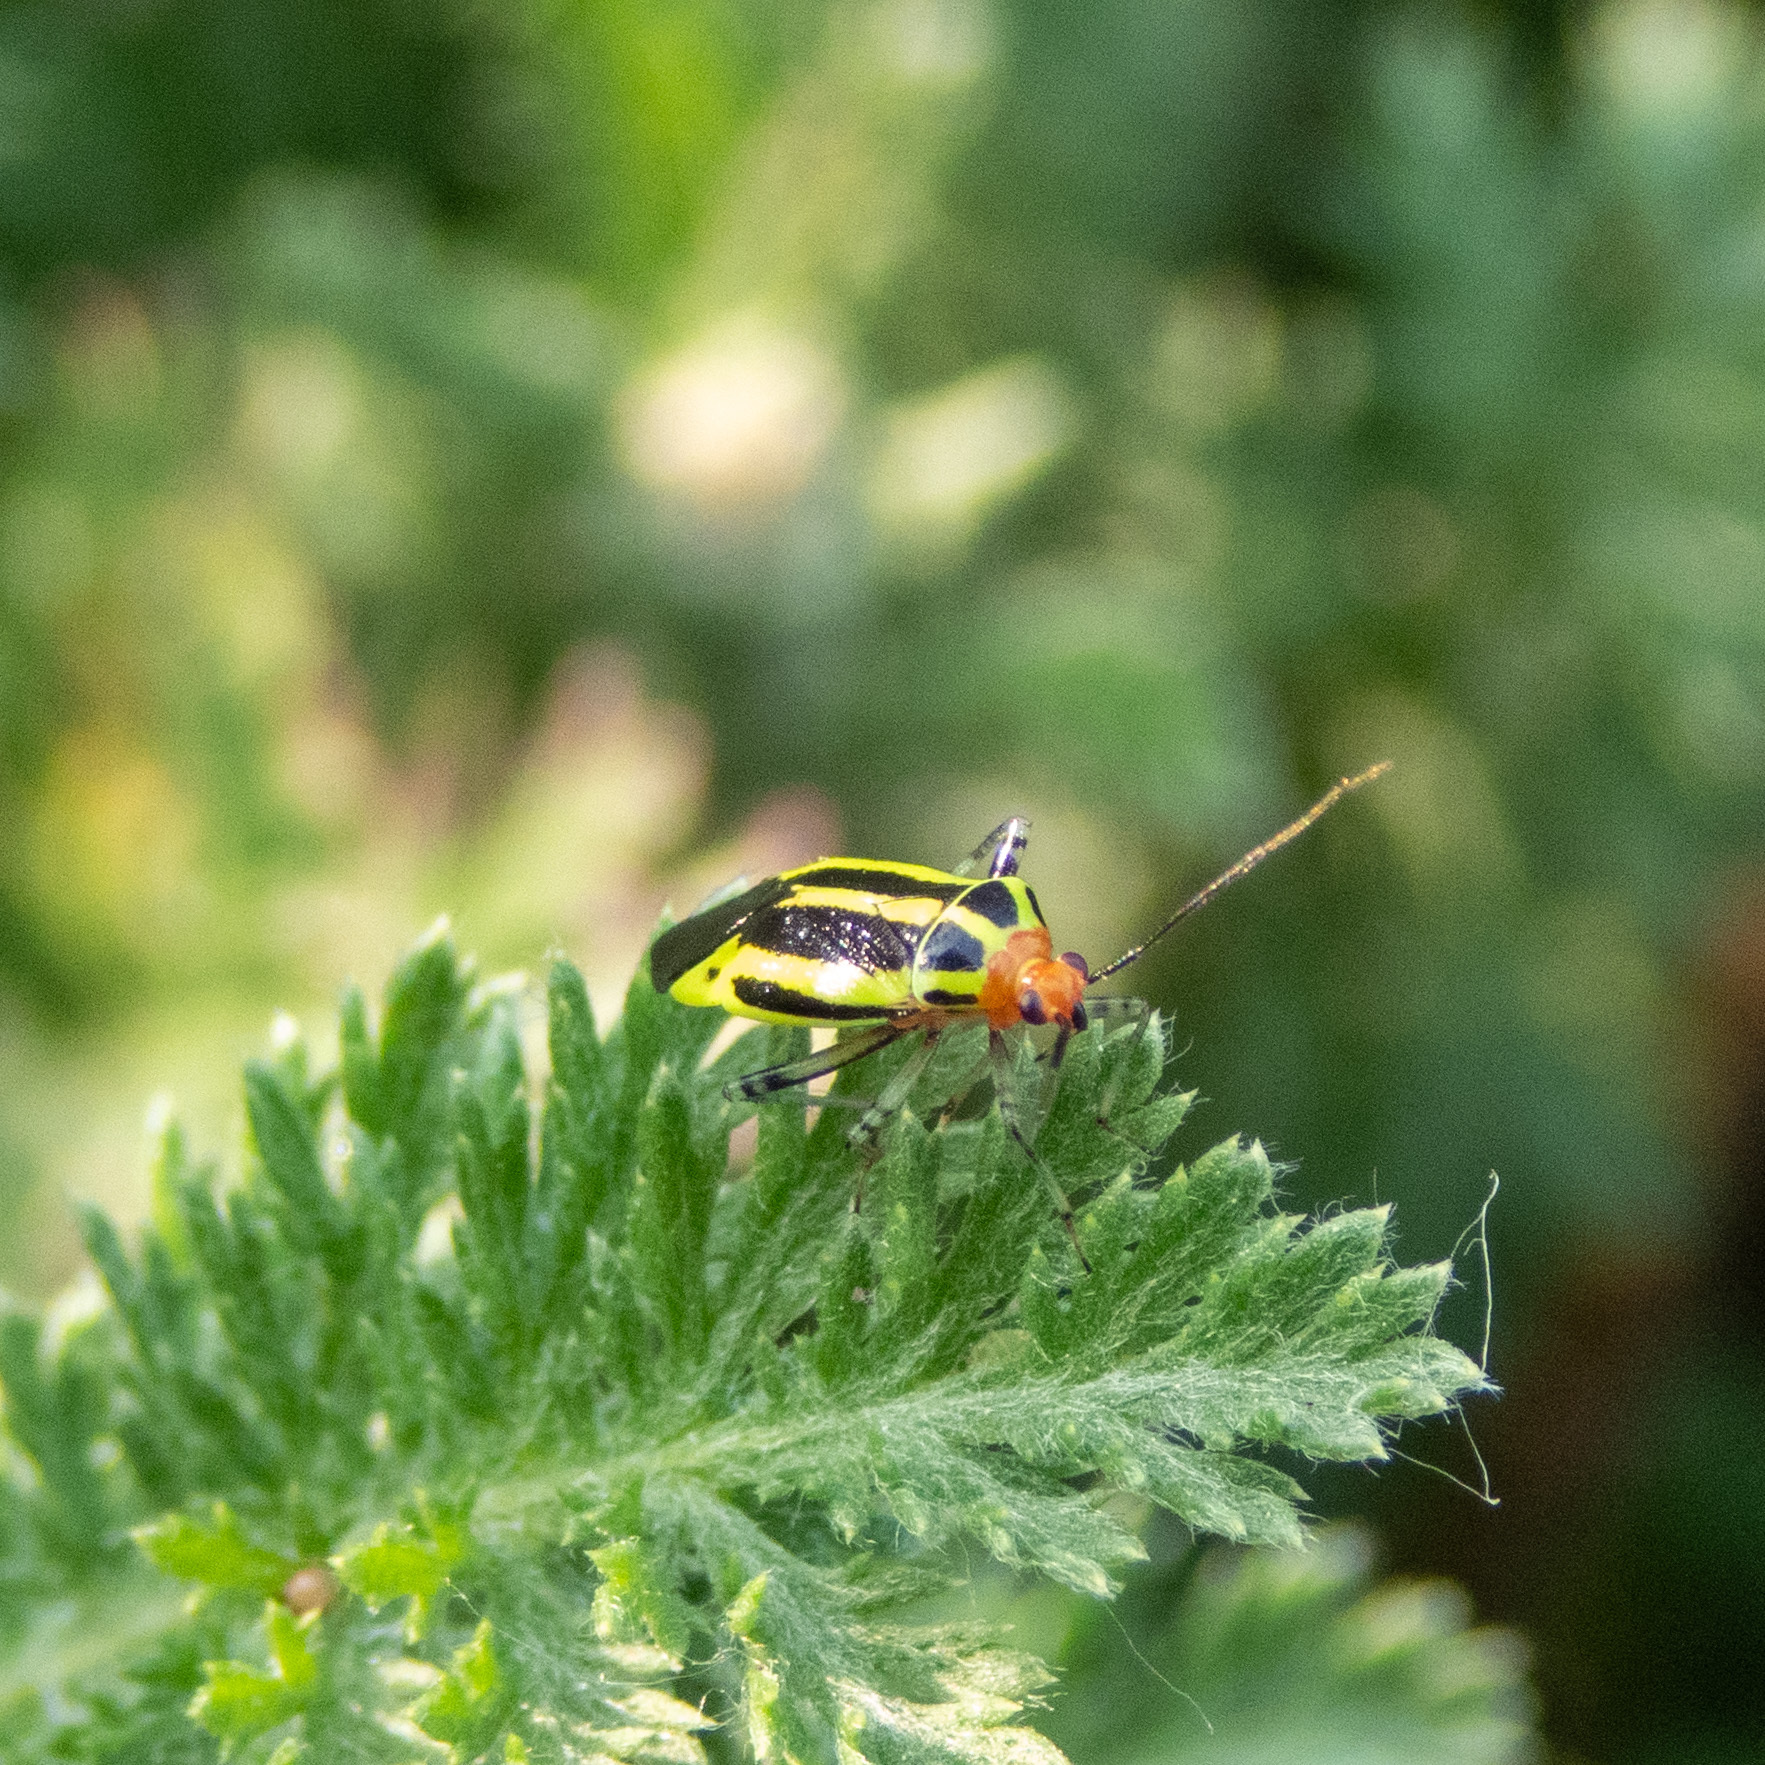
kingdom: Animalia
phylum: Arthropoda
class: Insecta
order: Hemiptera
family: Miridae
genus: Poecilocapsus
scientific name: Poecilocapsus lineatus
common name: Four-lined plant bug
